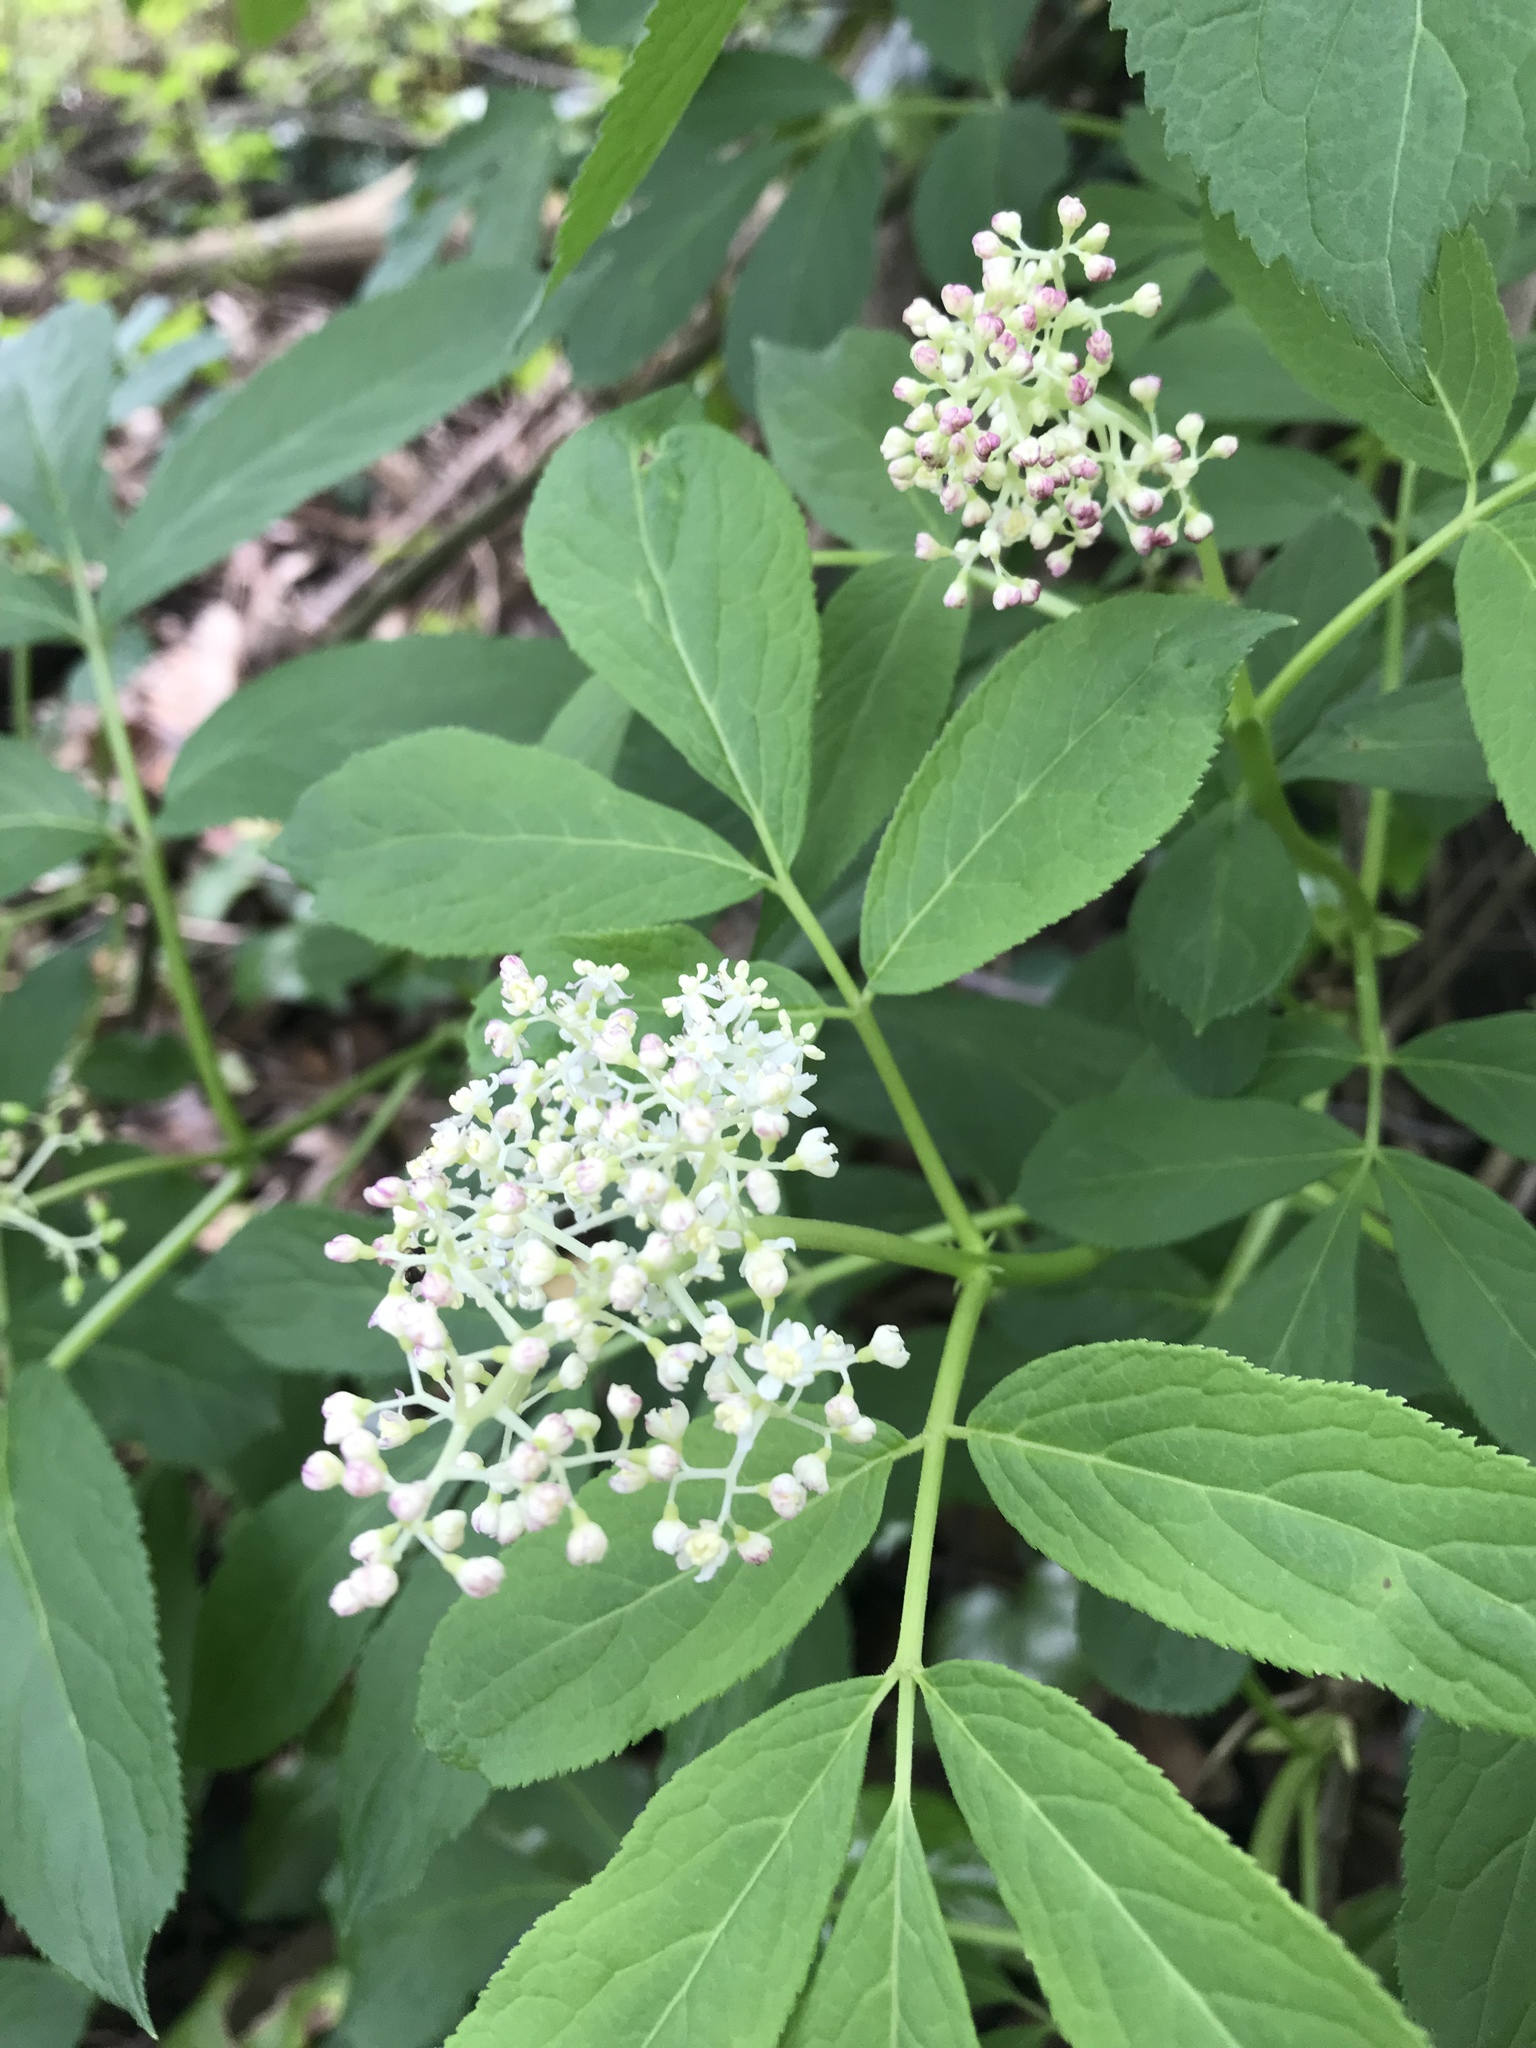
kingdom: Plantae
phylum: Tracheophyta
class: Magnoliopsida
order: Dipsacales
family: Viburnaceae
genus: Sambucus
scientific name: Sambucus racemosa
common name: Red-berried elder
